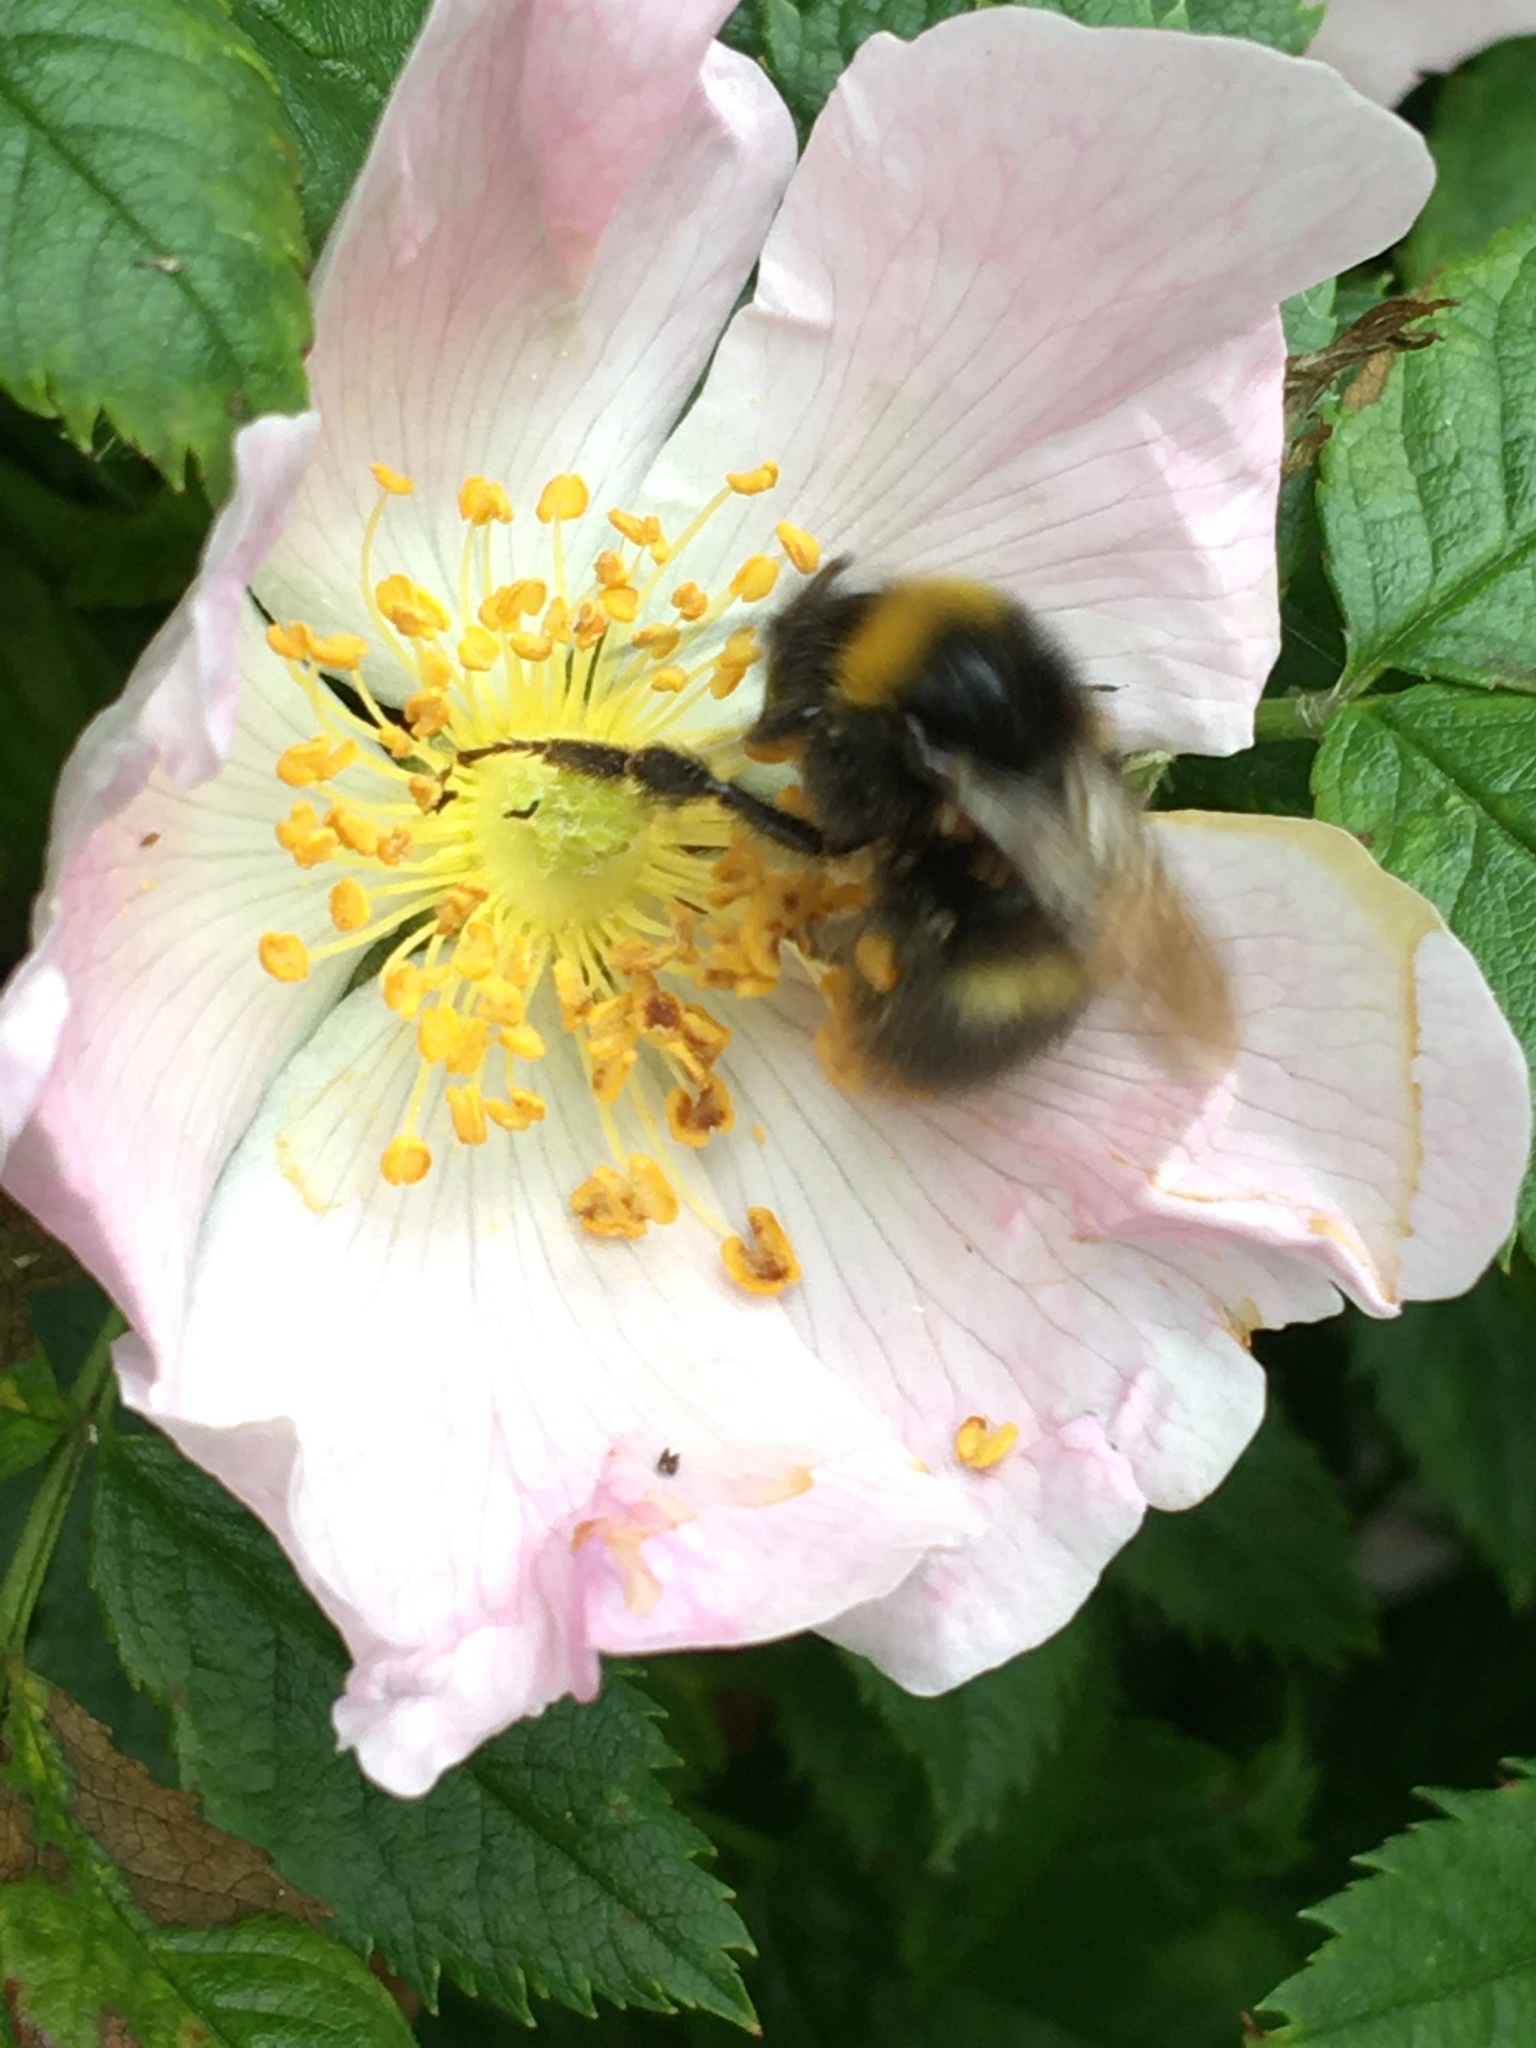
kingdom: Animalia
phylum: Arthropoda
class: Insecta
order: Hymenoptera
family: Apidae
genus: Bombus
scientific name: Bombus pratorum
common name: Early humble-bee
